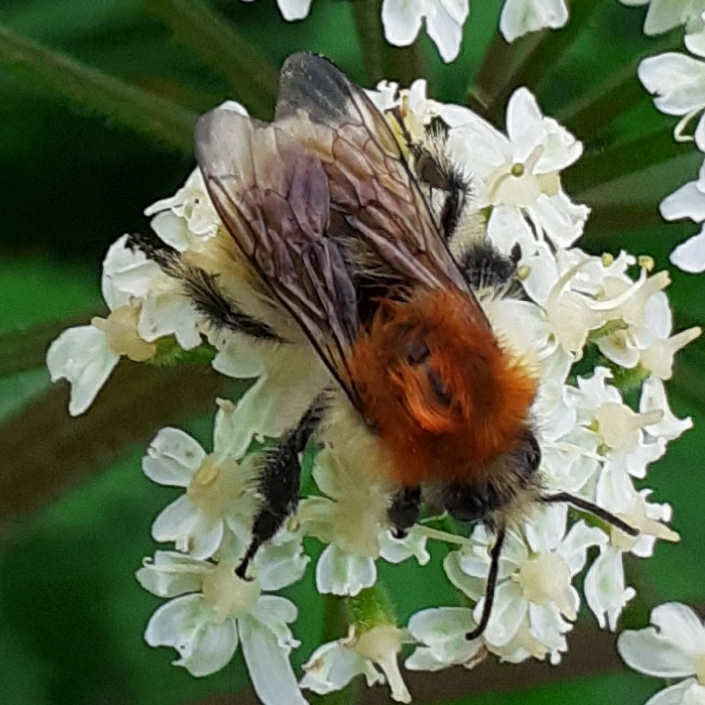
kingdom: Animalia
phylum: Arthropoda
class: Insecta
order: Hymenoptera
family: Apidae
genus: Bombus
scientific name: Bombus pascuorum
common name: Common carder bee
